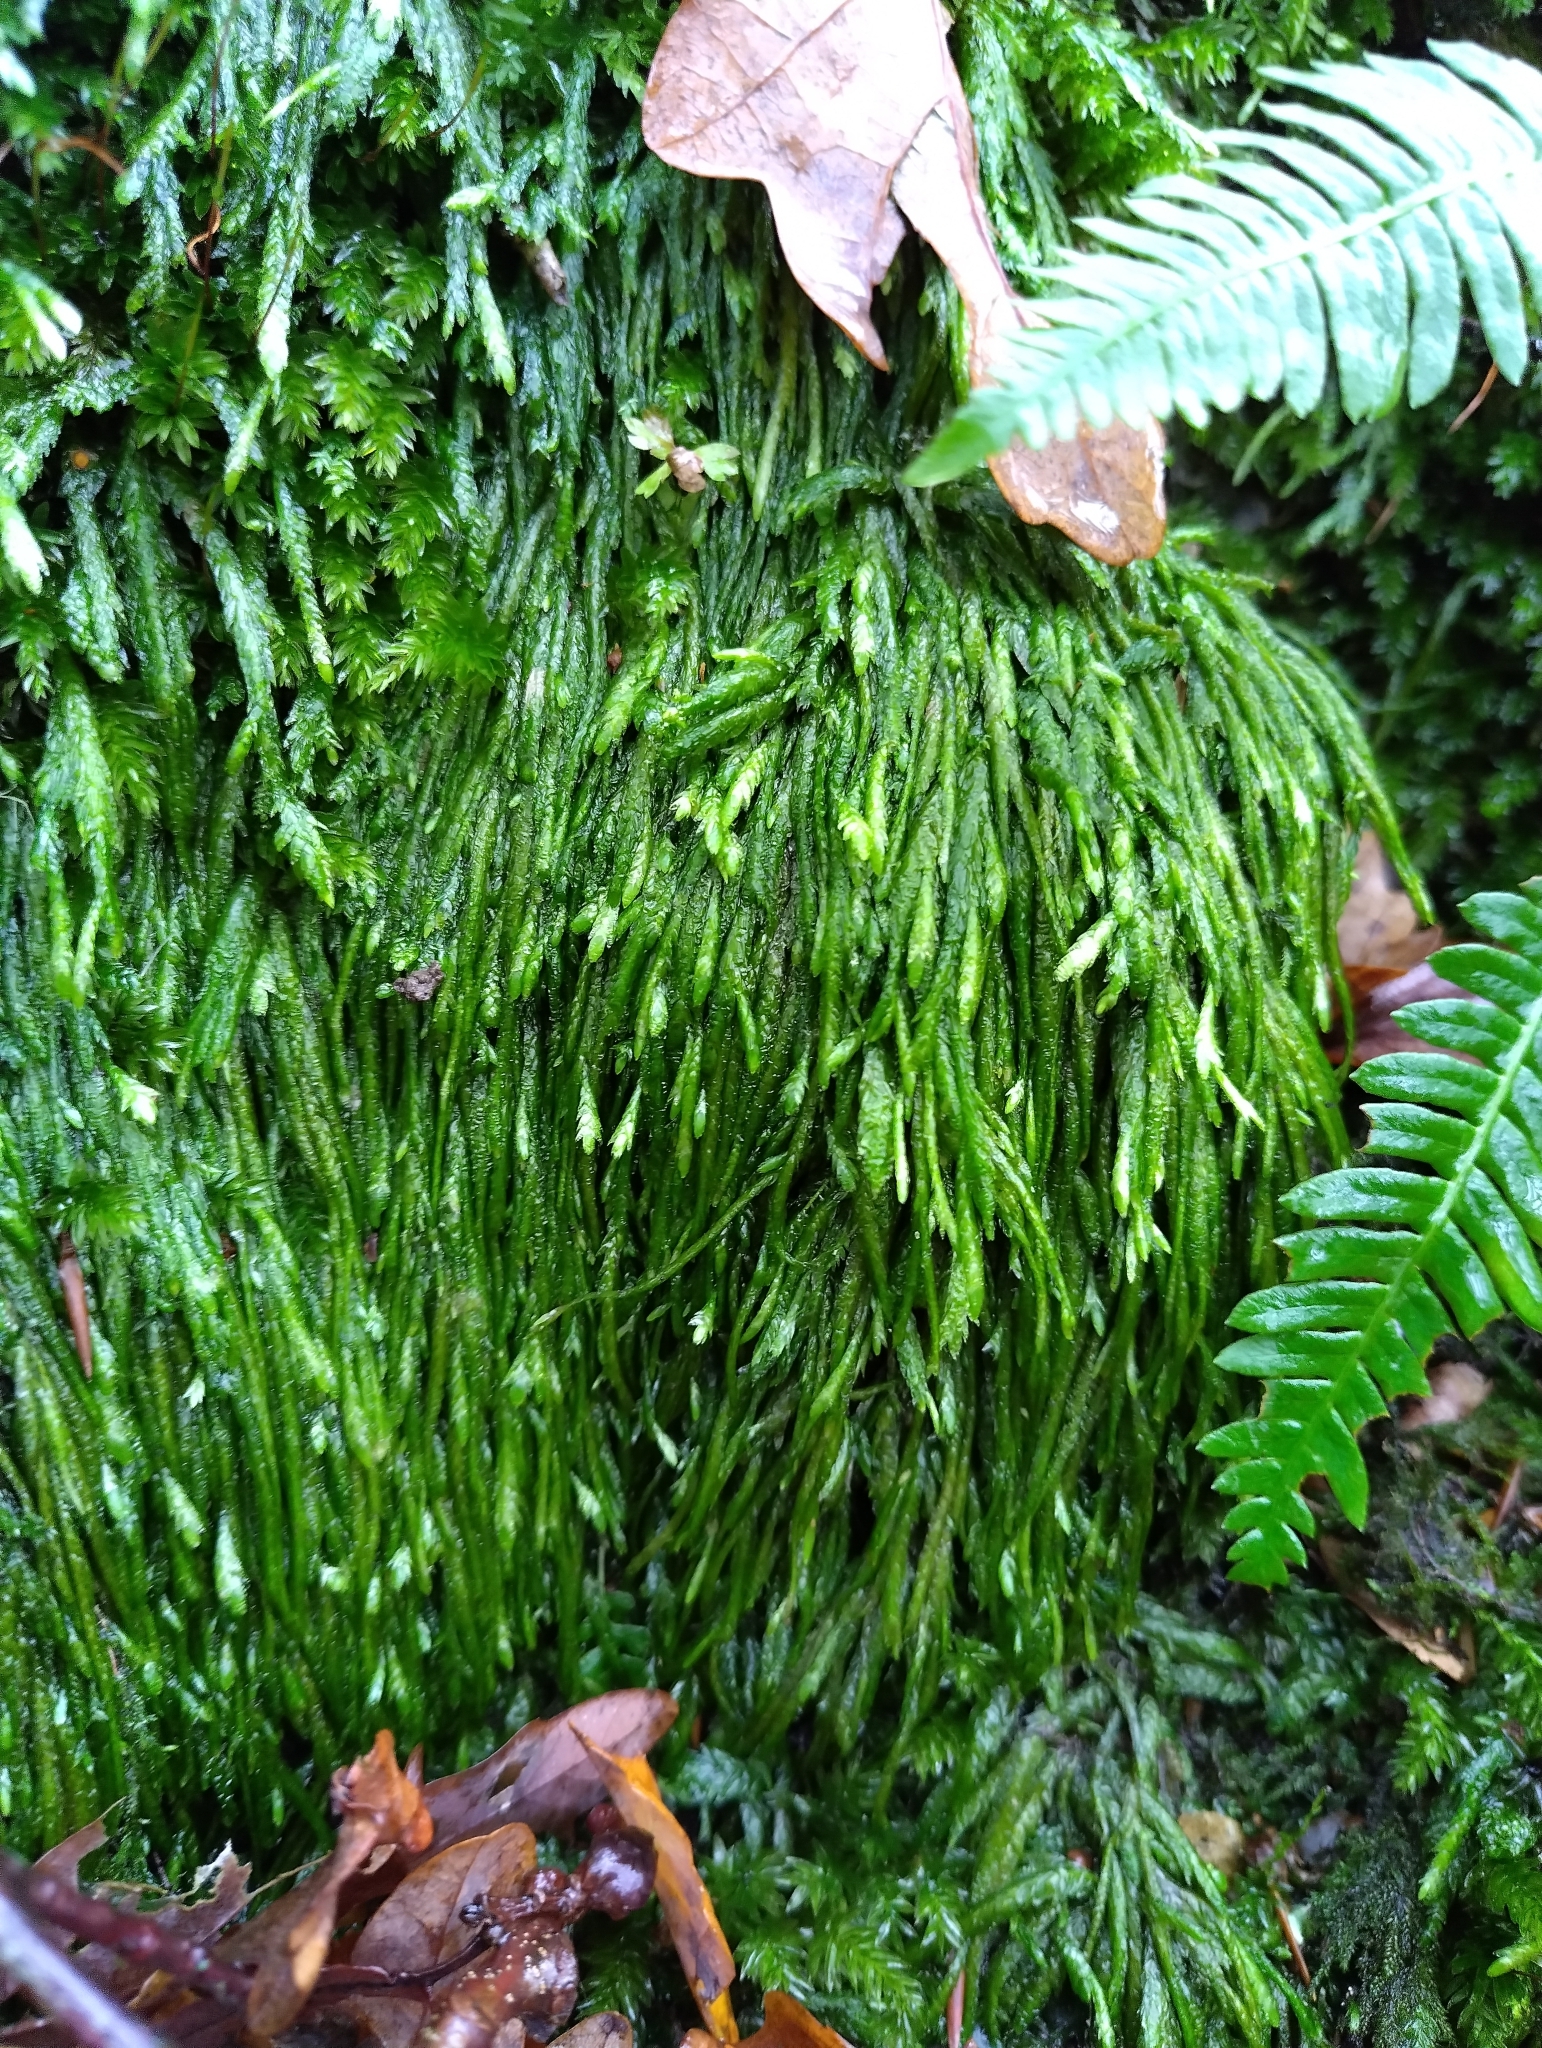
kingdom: Plantae
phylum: Bryophyta
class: Bryopsida
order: Hypnales
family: Plagiotheciaceae
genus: Plagiothecium
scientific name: Plagiothecium undulatum
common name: Waved silk-moss
